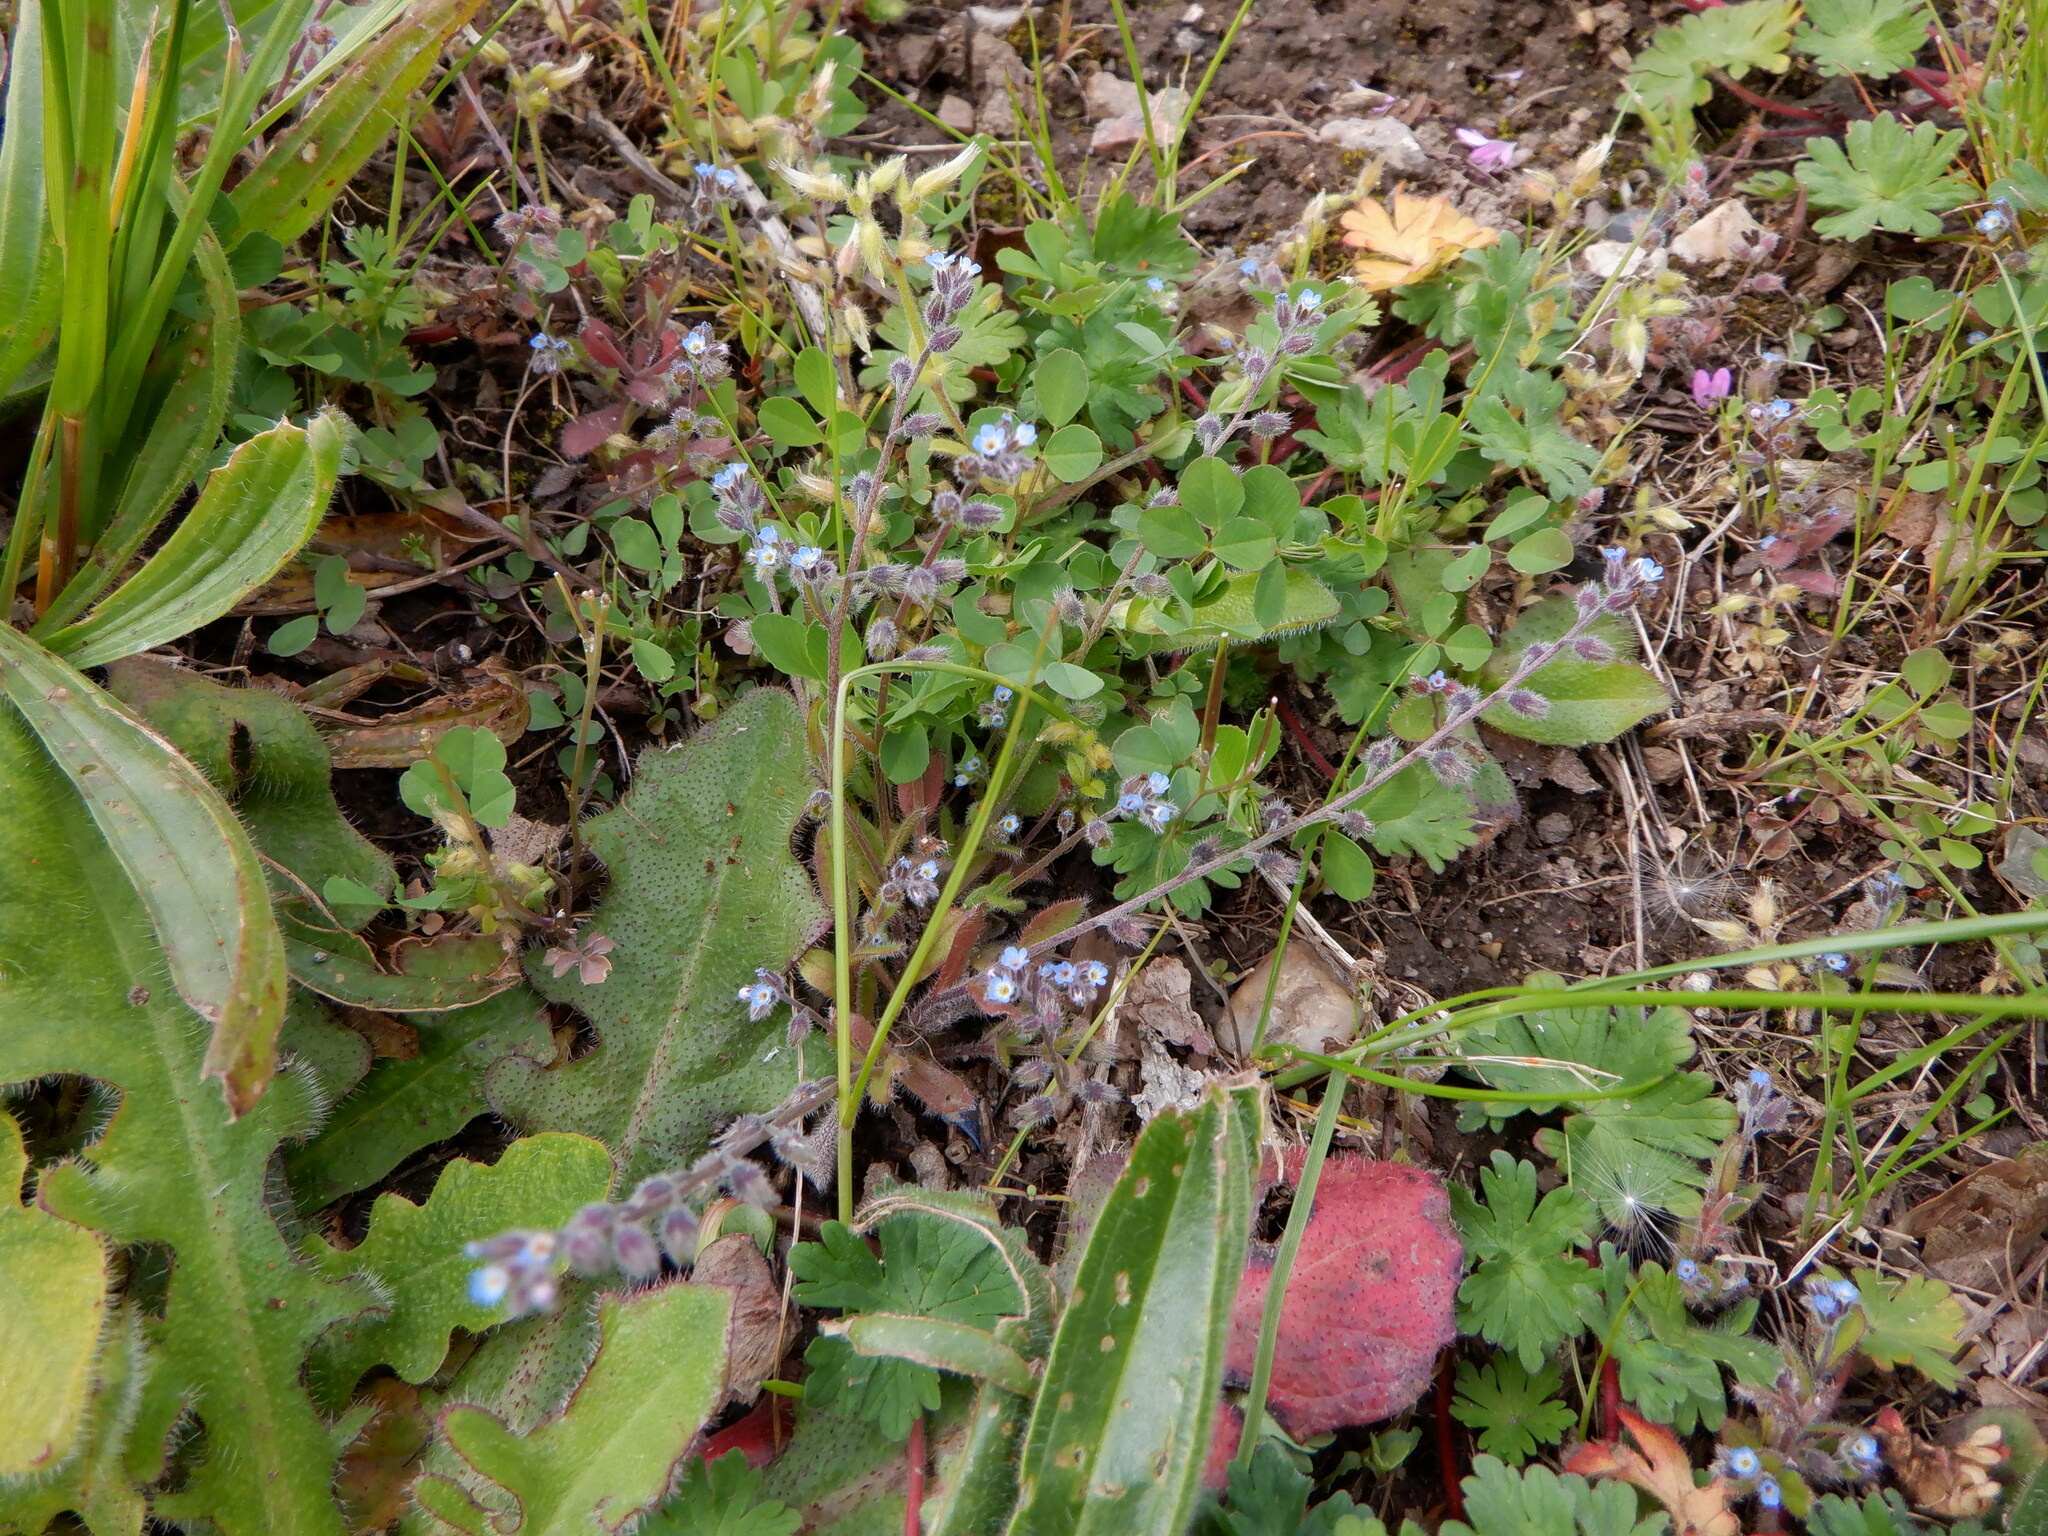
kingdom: Plantae
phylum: Tracheophyta
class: Magnoliopsida
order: Boraginales
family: Boraginaceae
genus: Myosotis
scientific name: Myosotis ramosissima
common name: Early forget-me-not
